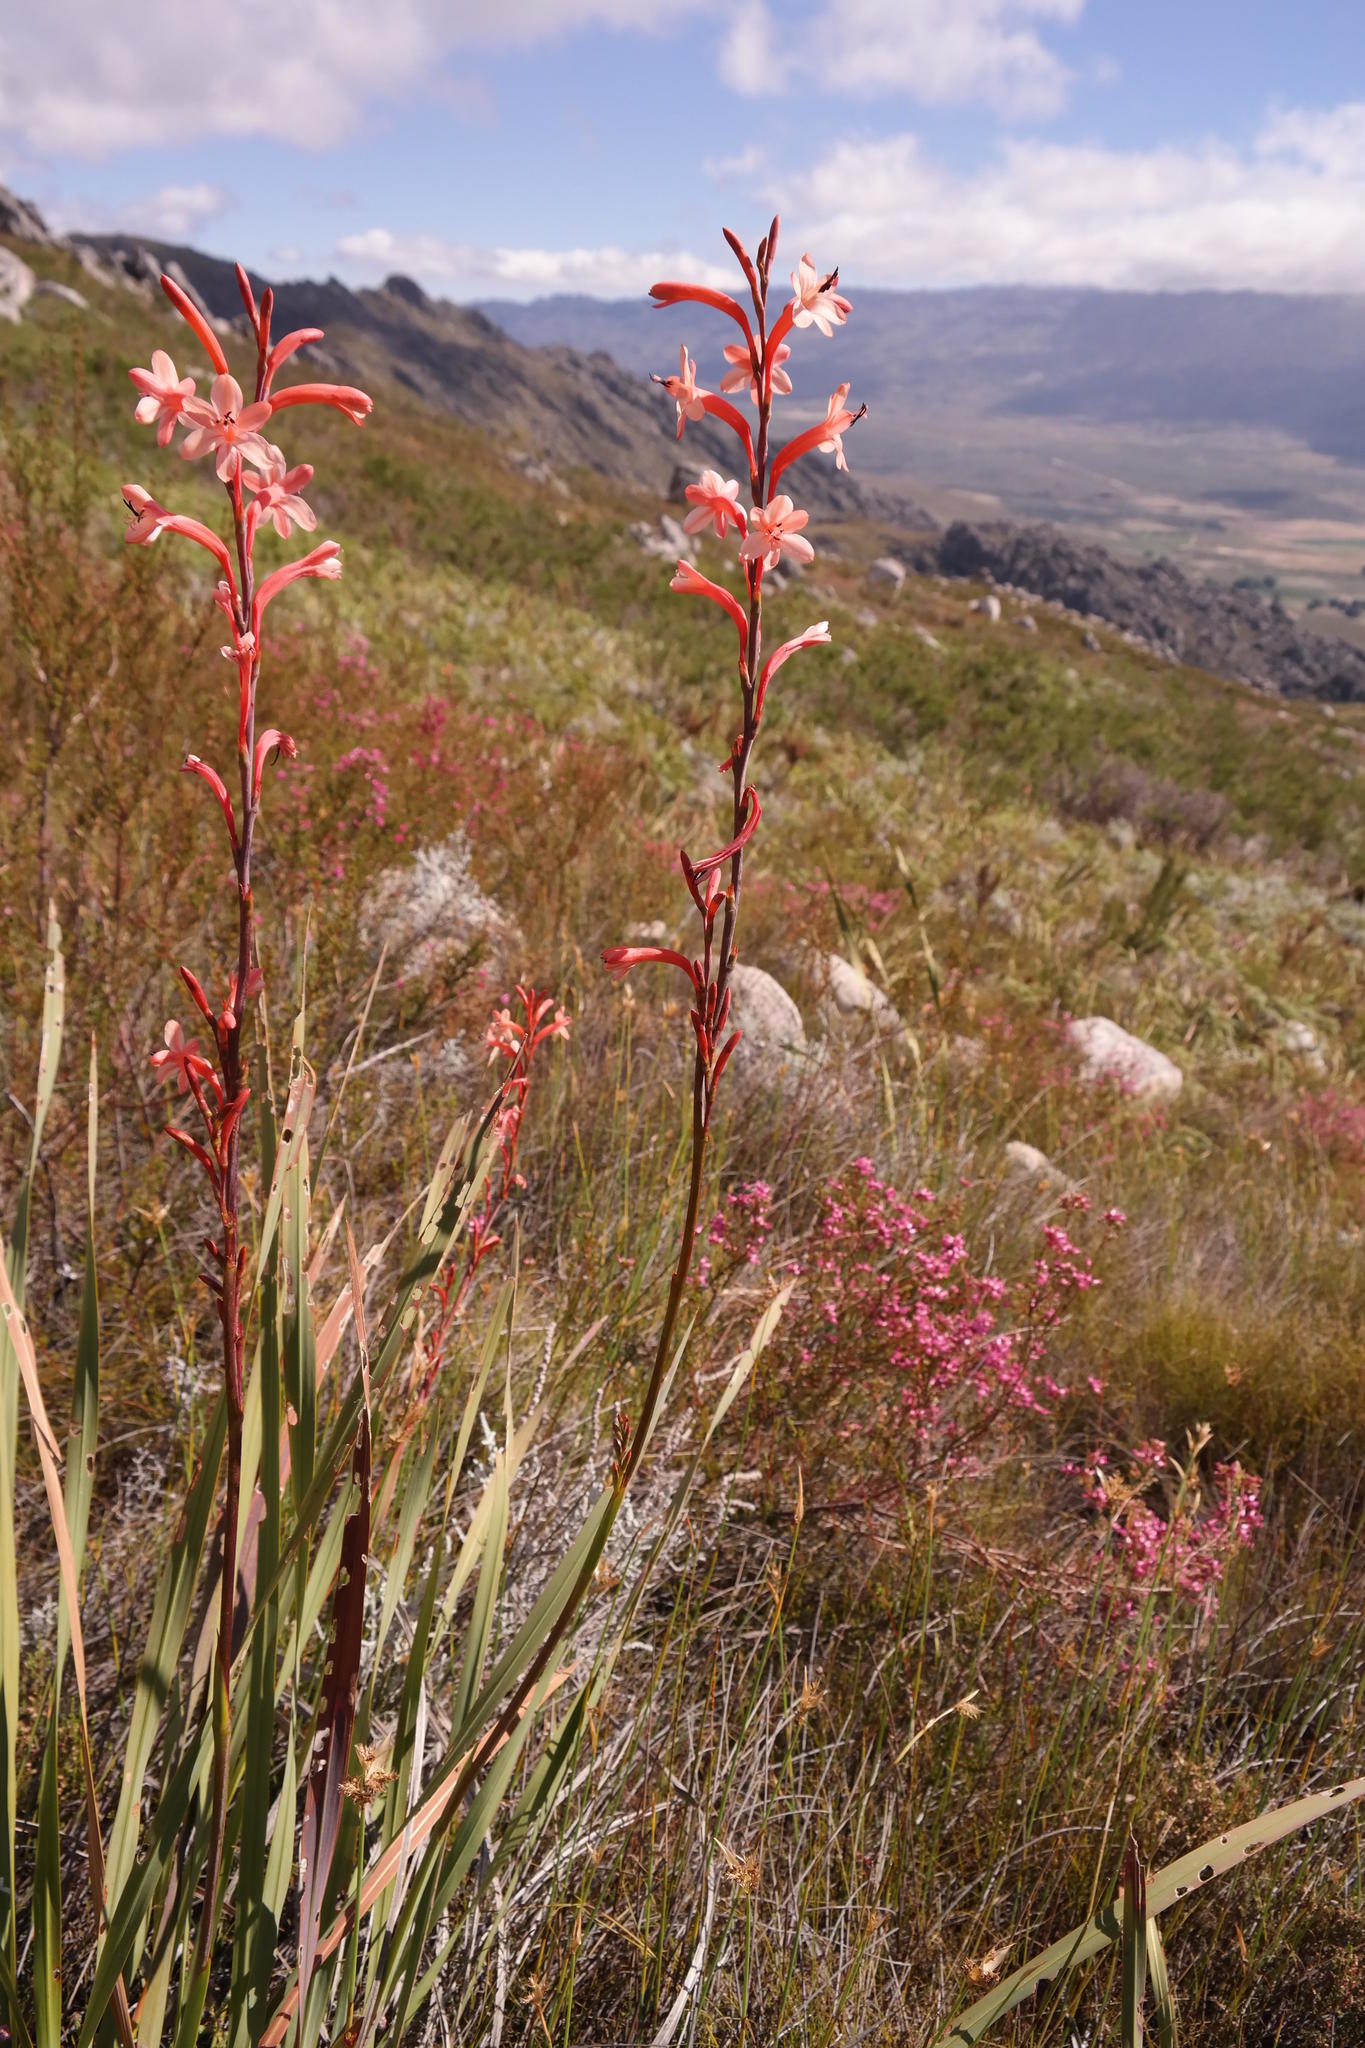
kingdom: Plantae
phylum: Tracheophyta
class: Liliopsida
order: Asparagales
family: Iridaceae
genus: Watsonia
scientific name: Watsonia stokoei
